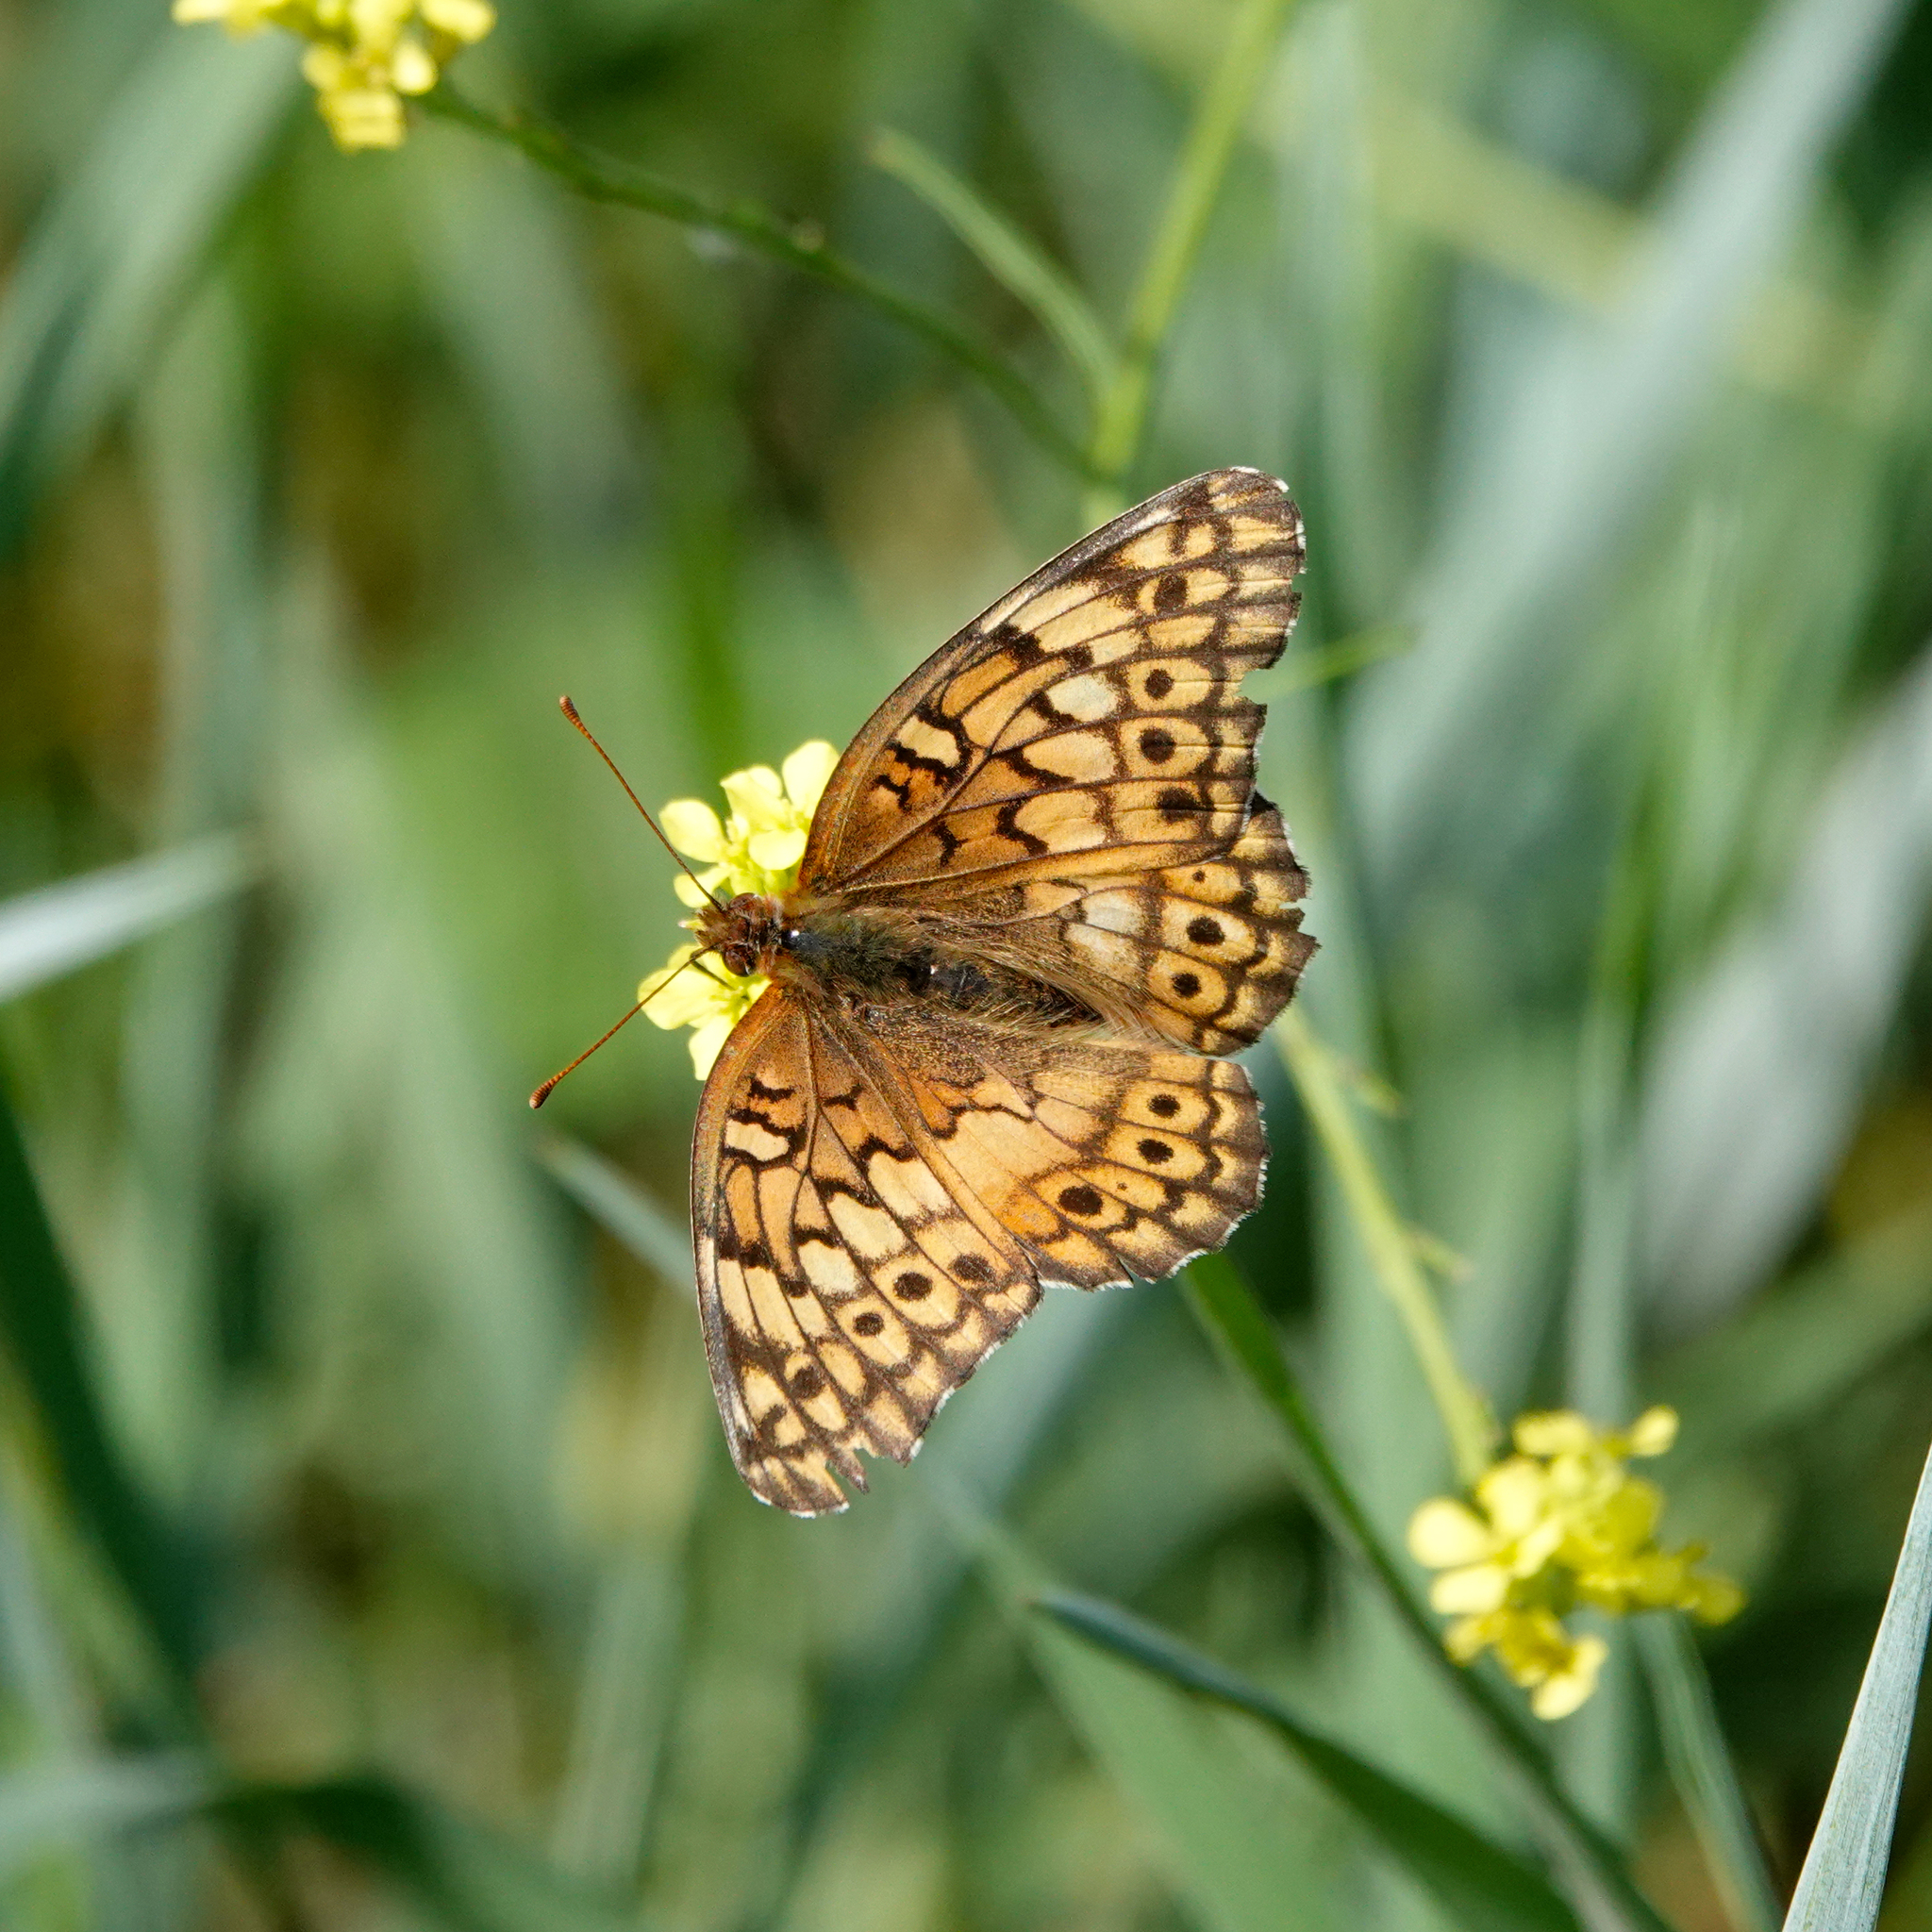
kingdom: Animalia
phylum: Arthropoda
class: Insecta
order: Lepidoptera
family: Nymphalidae
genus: Euptoieta
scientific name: Euptoieta claudia
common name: Variegated fritillary
